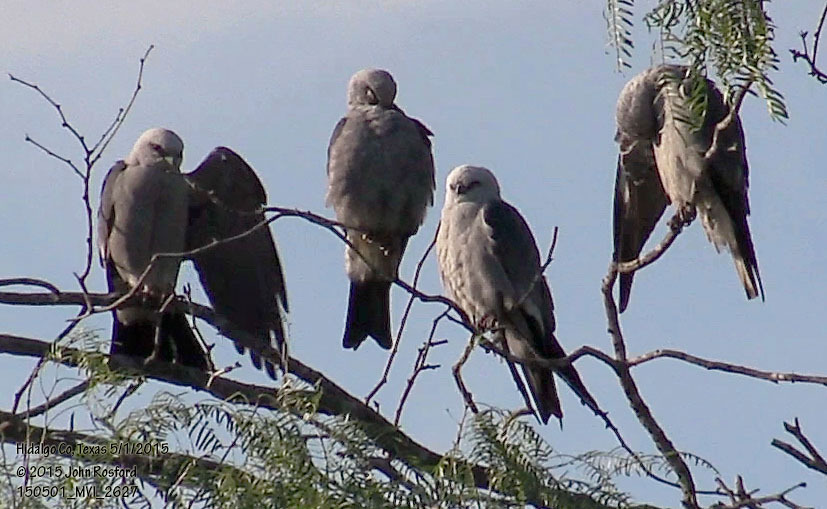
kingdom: Animalia
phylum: Chordata
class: Aves
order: Accipitriformes
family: Accipitridae
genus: Ictinia
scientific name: Ictinia mississippiensis
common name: Mississippi kite
